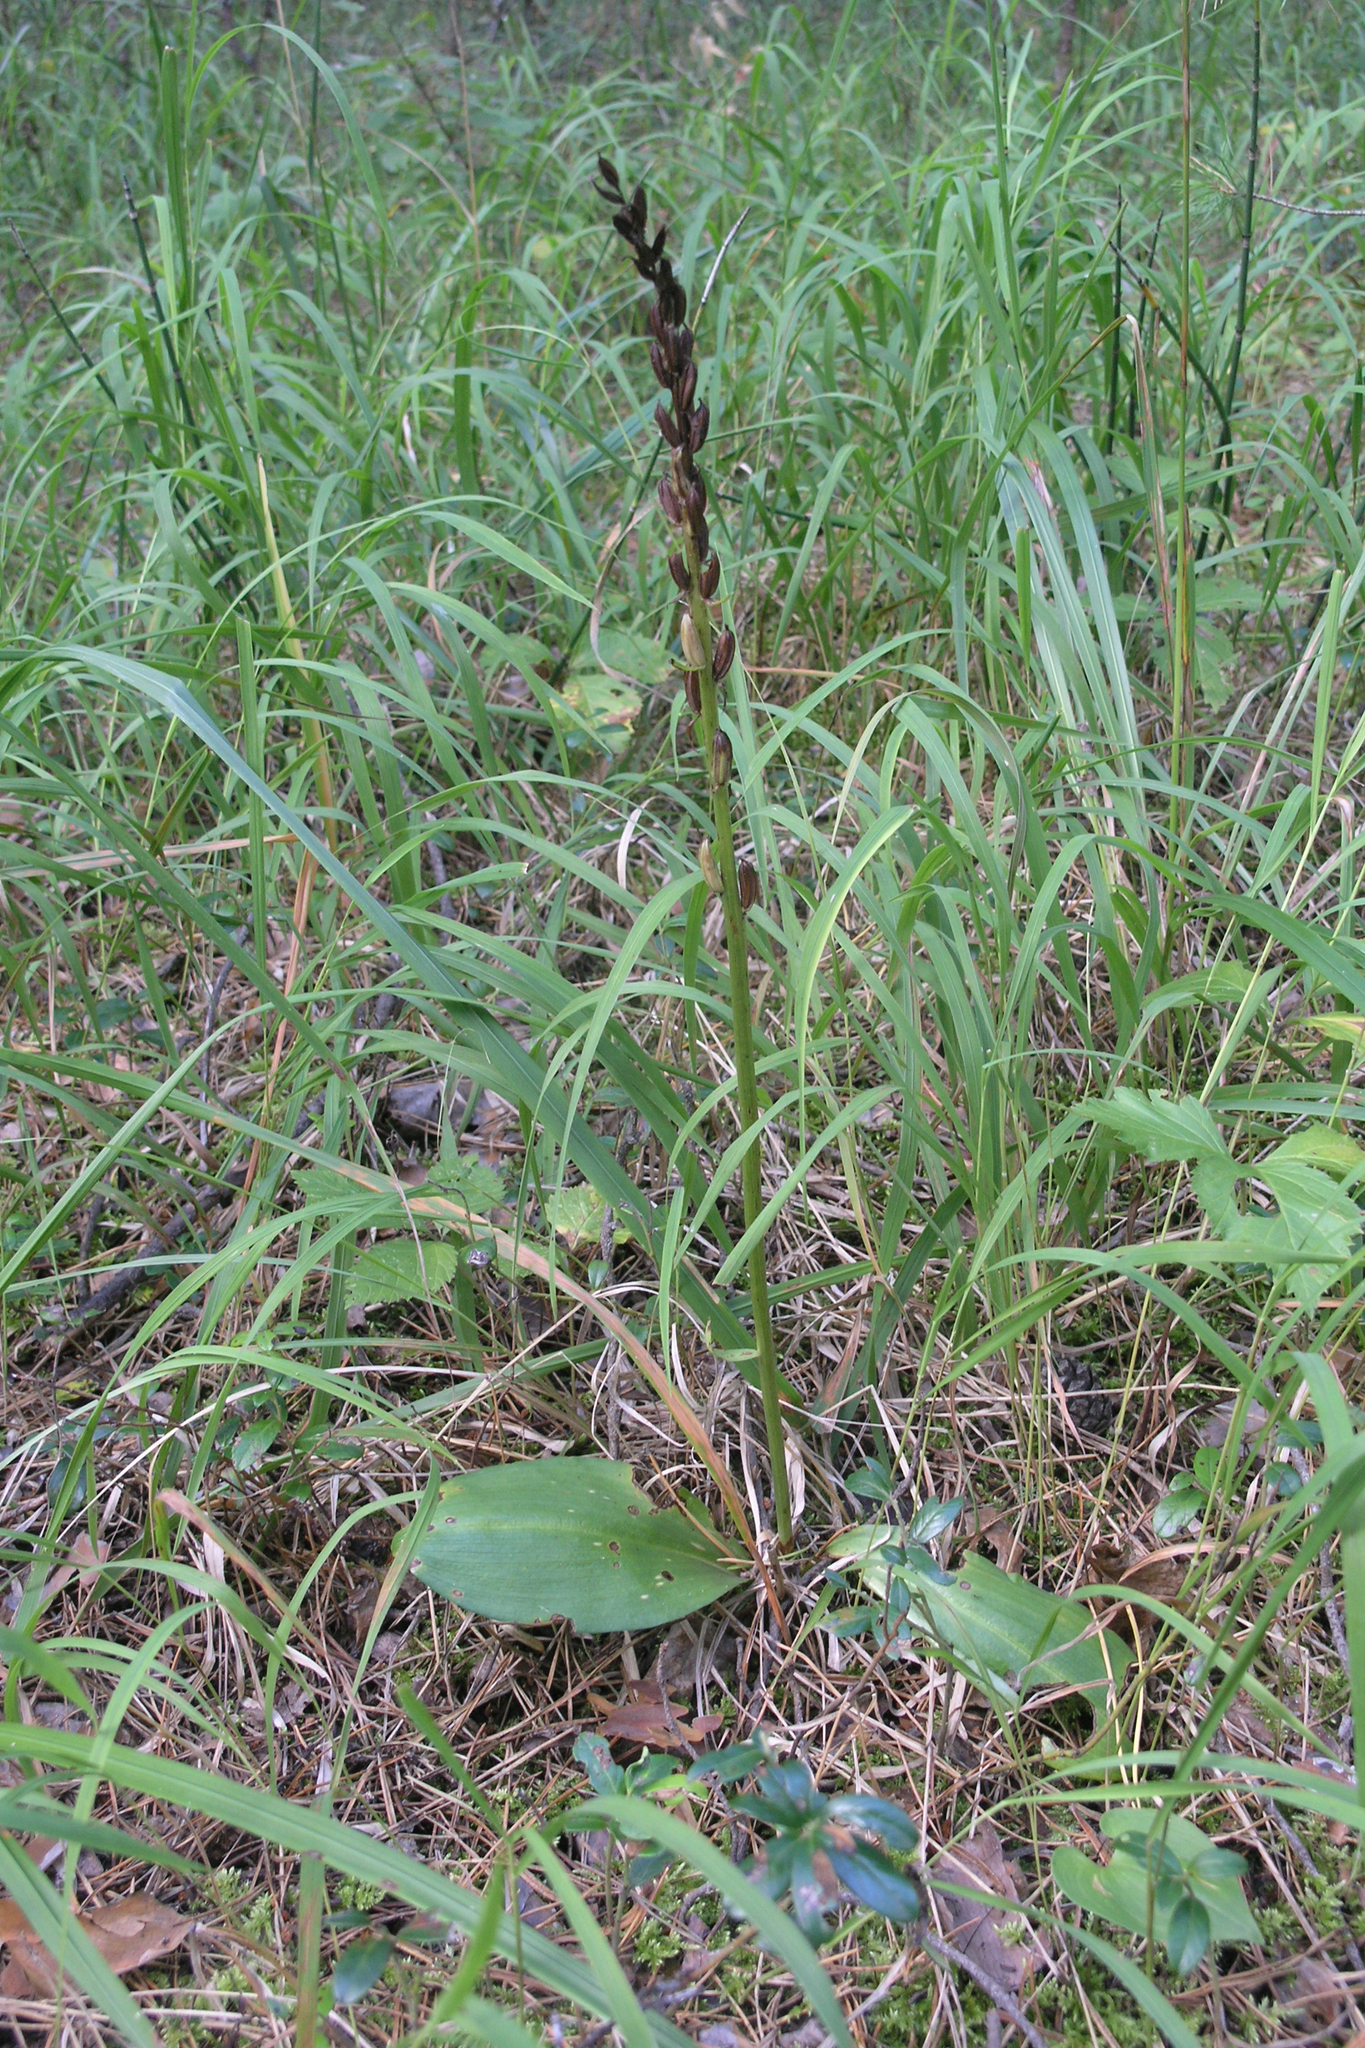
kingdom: Plantae
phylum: Tracheophyta
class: Liliopsida
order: Asparagales
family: Orchidaceae
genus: Platanthera
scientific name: Platanthera bifolia
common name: Lesser butterfly-orchid
